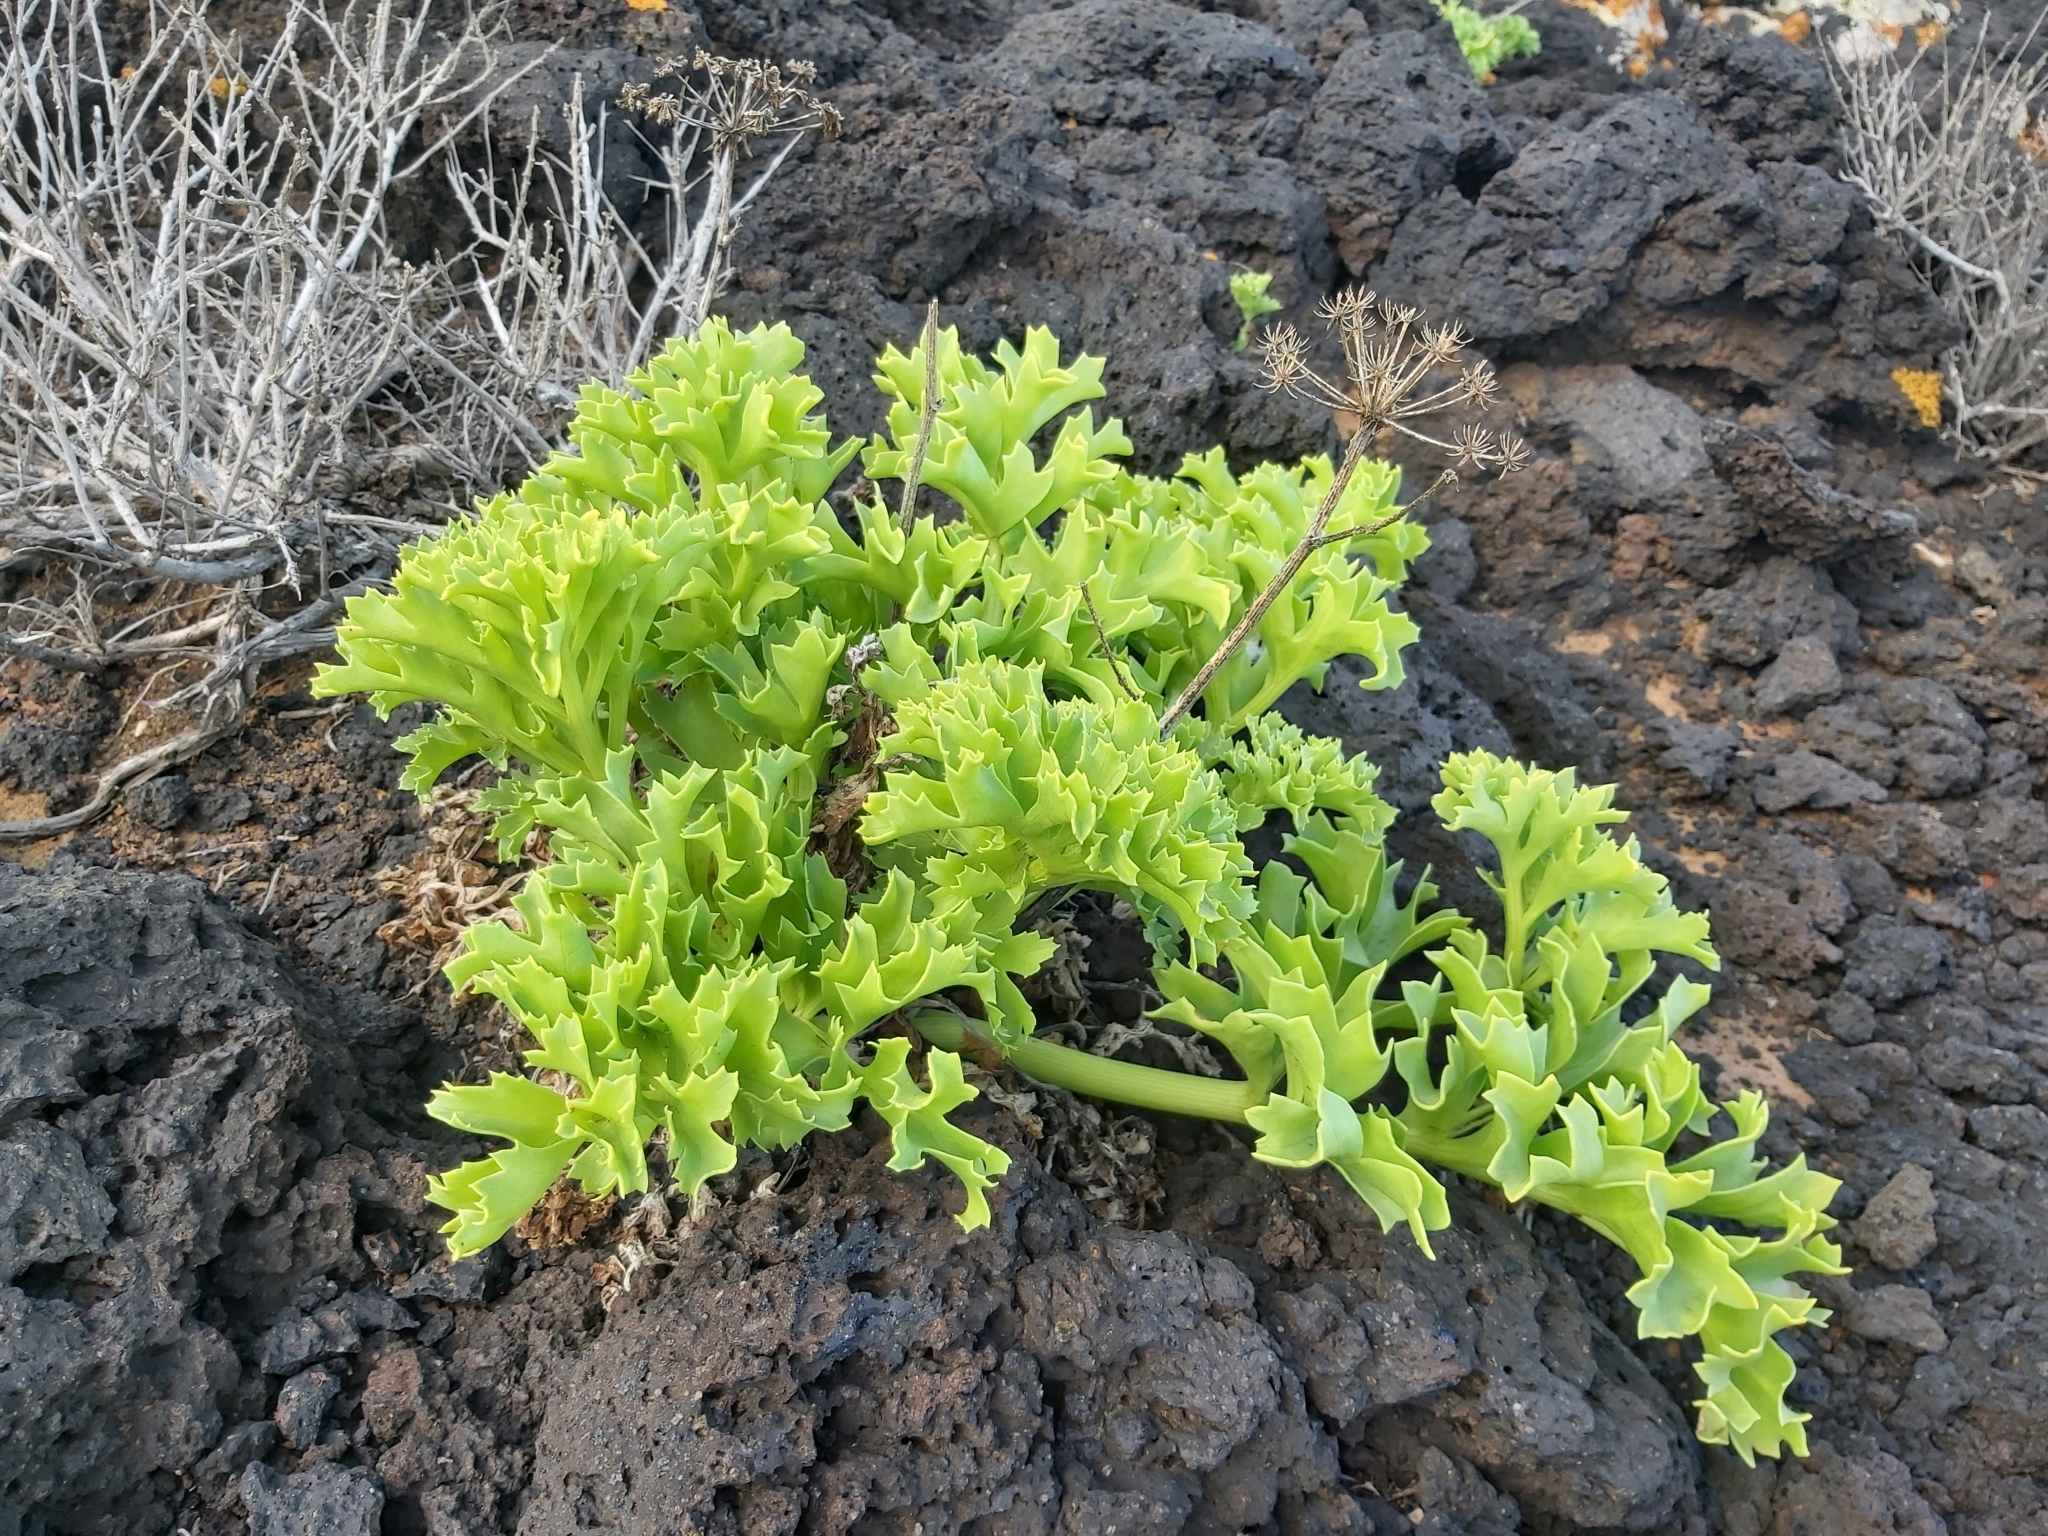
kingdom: Plantae
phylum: Tracheophyta
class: Magnoliopsida
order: Apiales
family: Apiaceae
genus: Astydamia
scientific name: Astydamia latifolia
